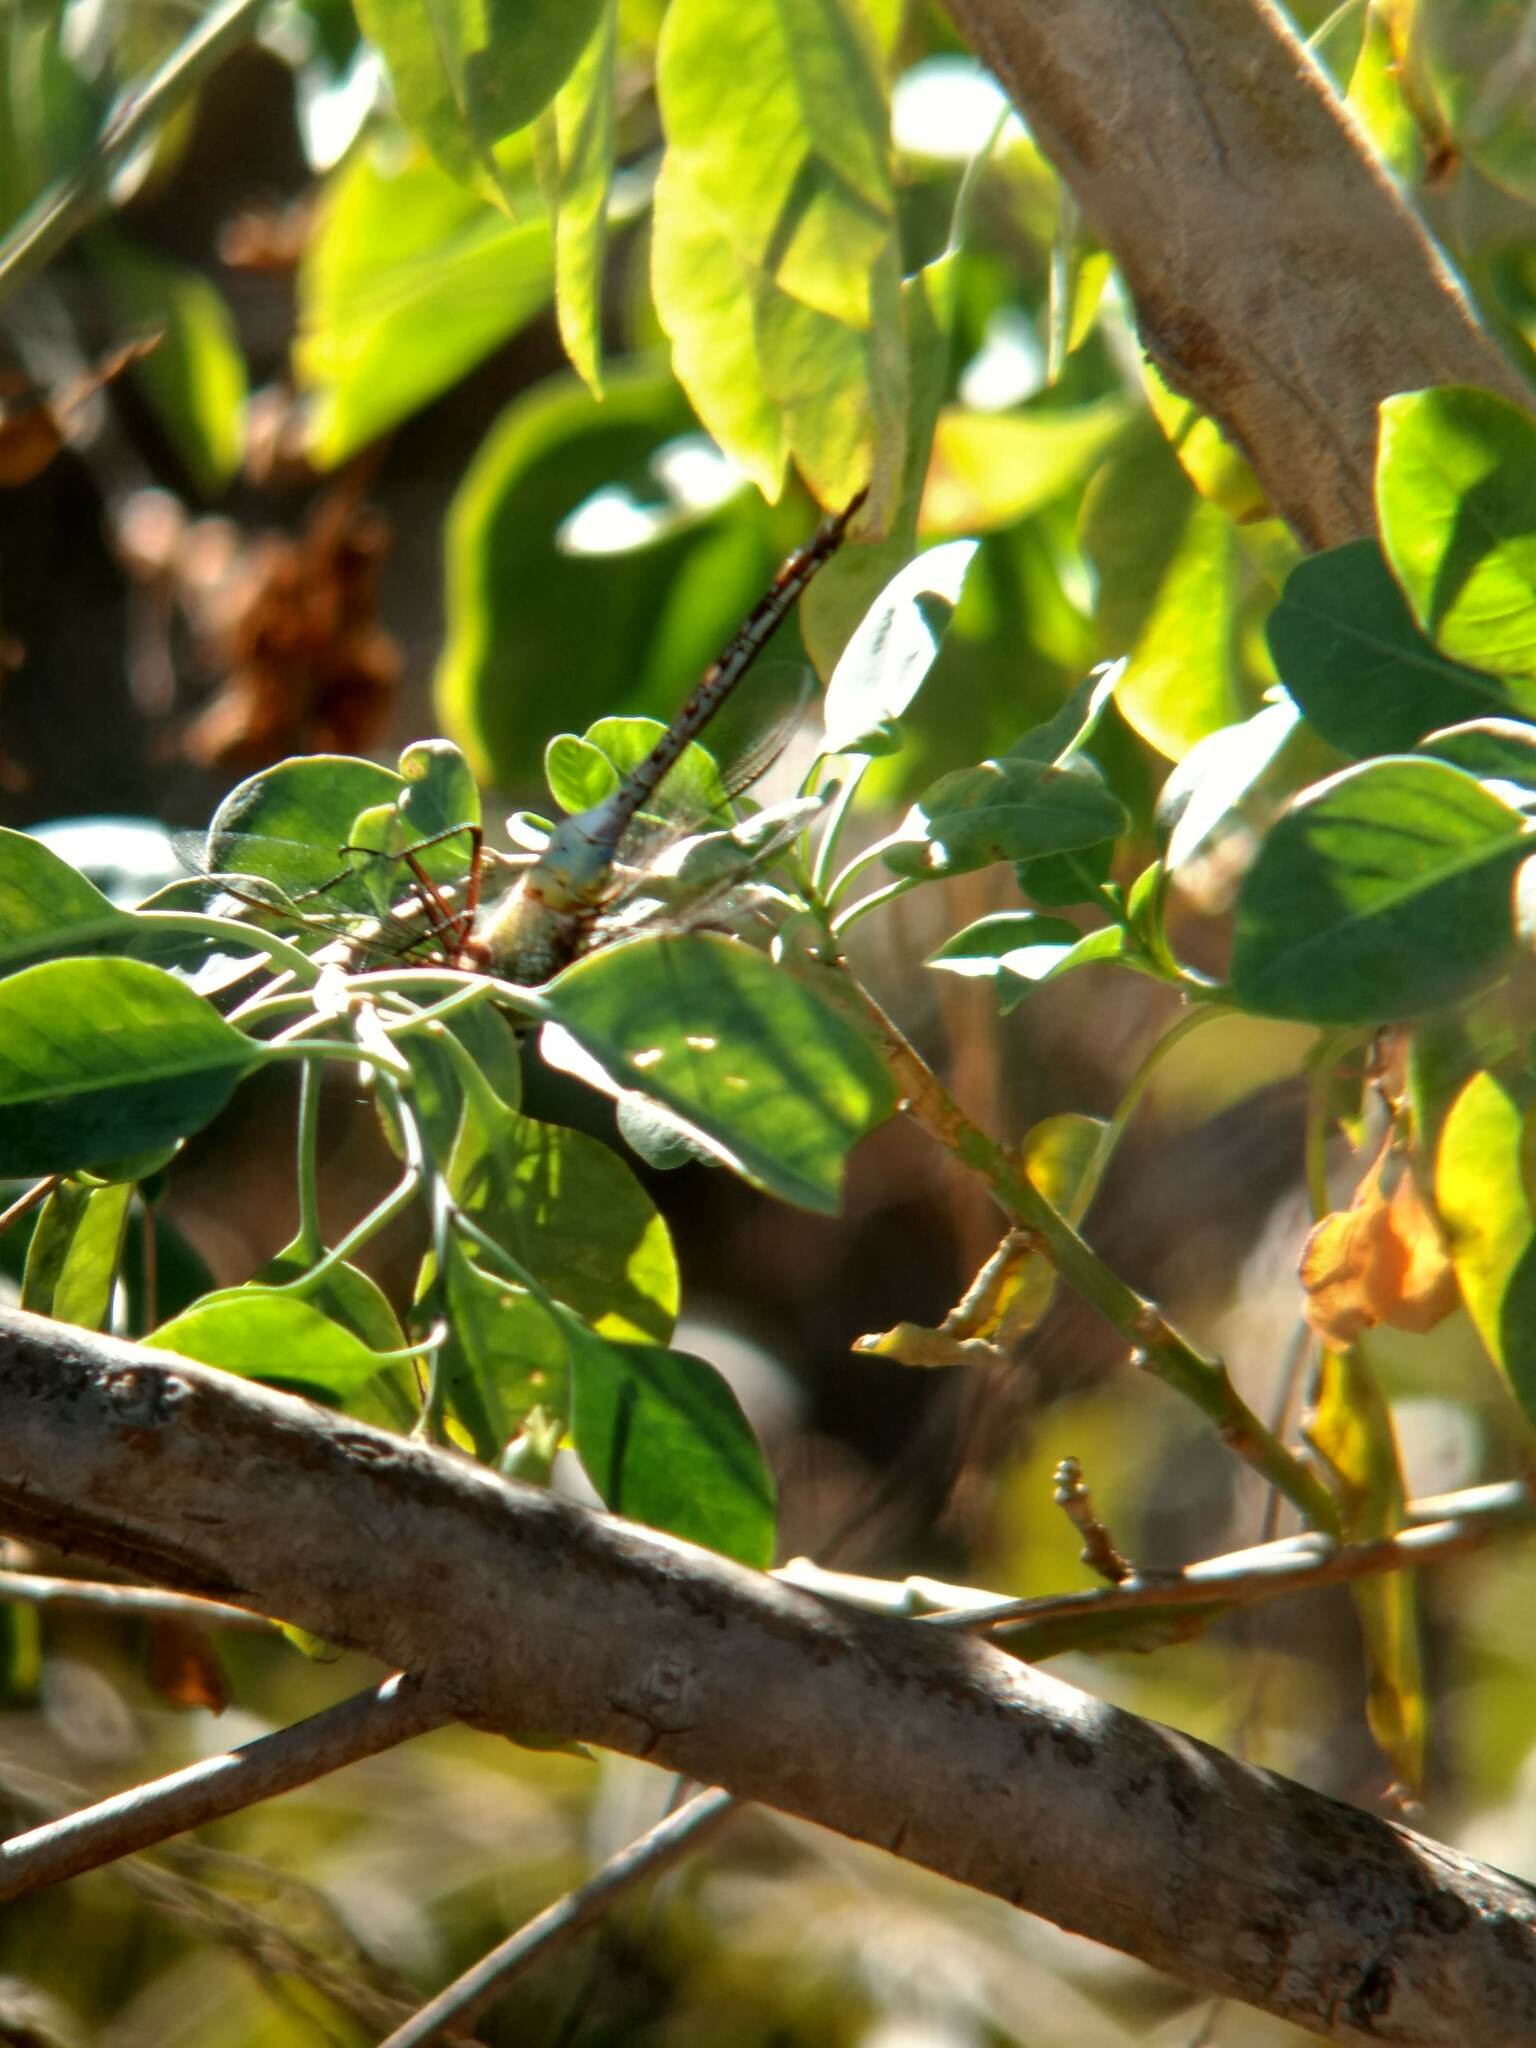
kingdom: Animalia
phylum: Arthropoda
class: Insecta
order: Odonata
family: Aeshnidae
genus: Anax
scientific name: Anax junius
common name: Common green darner
